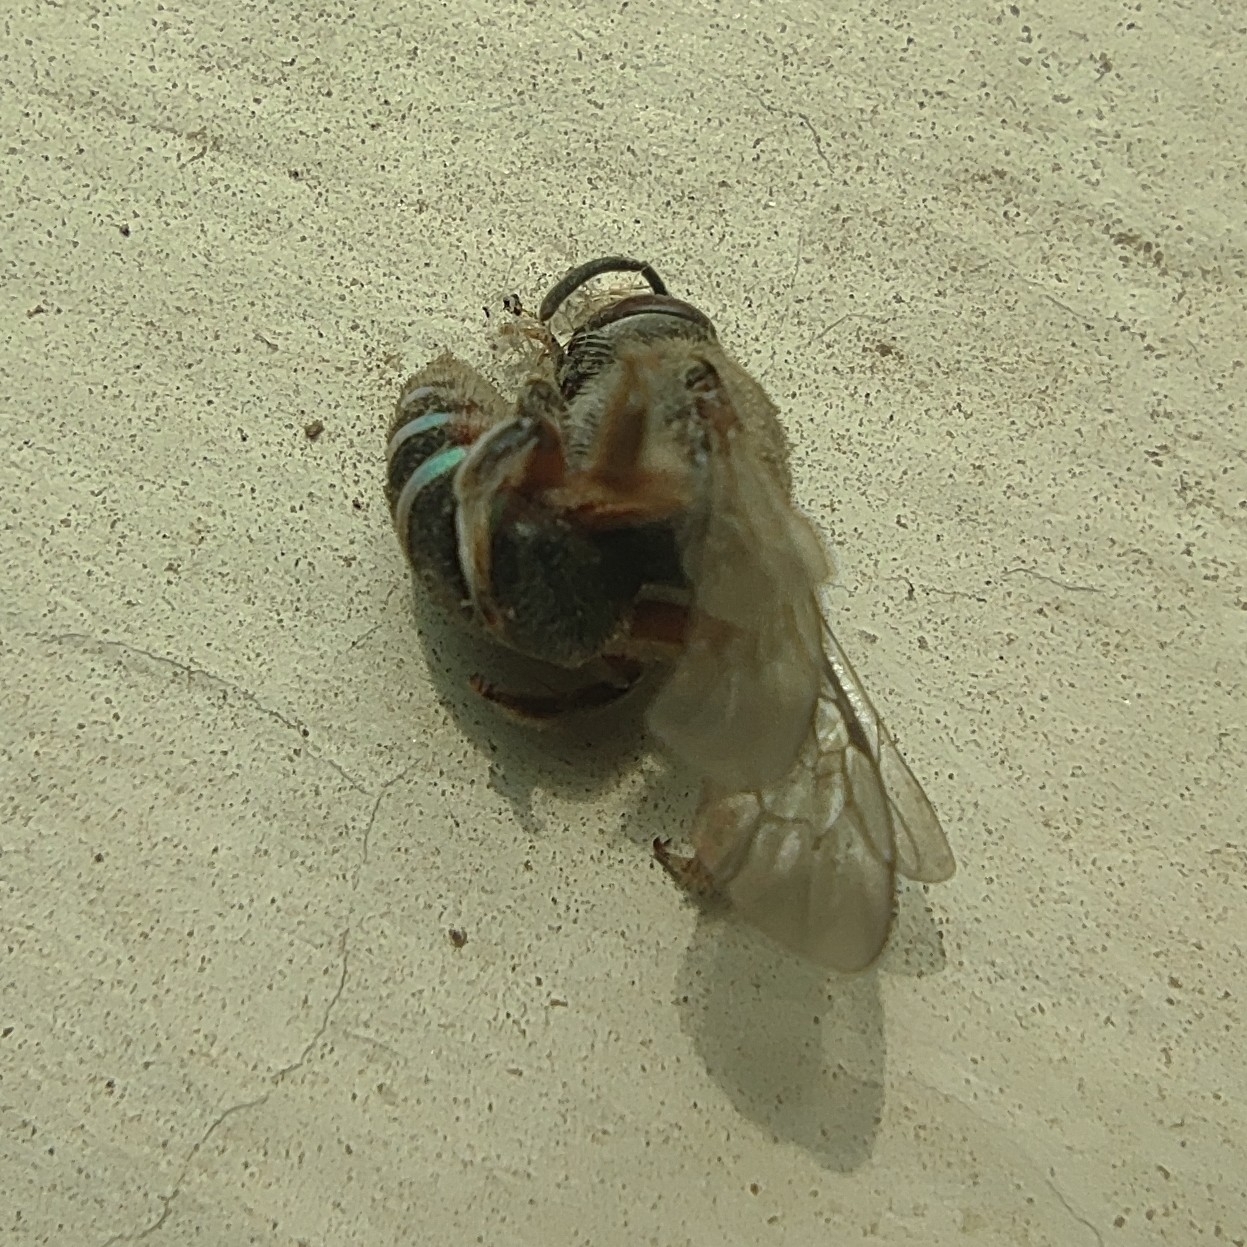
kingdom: Animalia
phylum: Arthropoda
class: Insecta
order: Hymenoptera
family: Halictidae
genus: Nomia
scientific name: Nomia westwoodi
